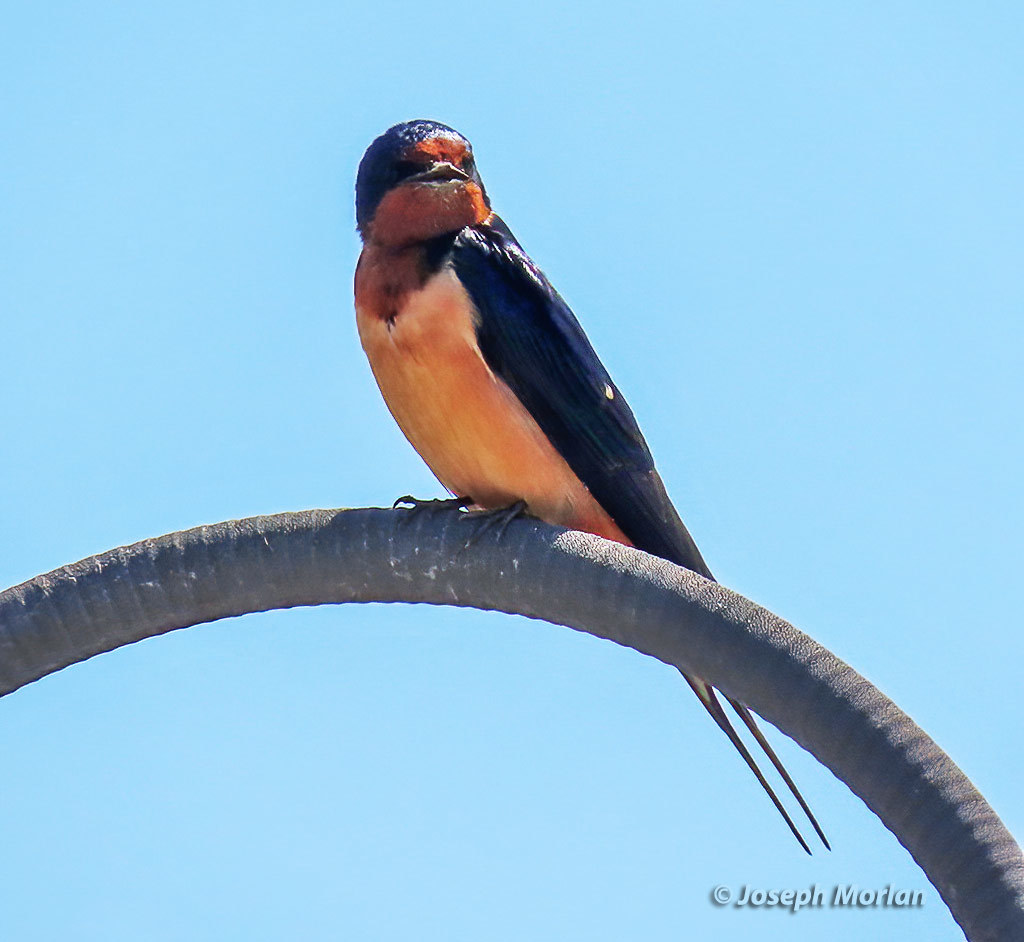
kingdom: Animalia
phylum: Chordata
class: Aves
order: Passeriformes
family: Hirundinidae
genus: Hirundo
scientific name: Hirundo rustica
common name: Barn swallow
